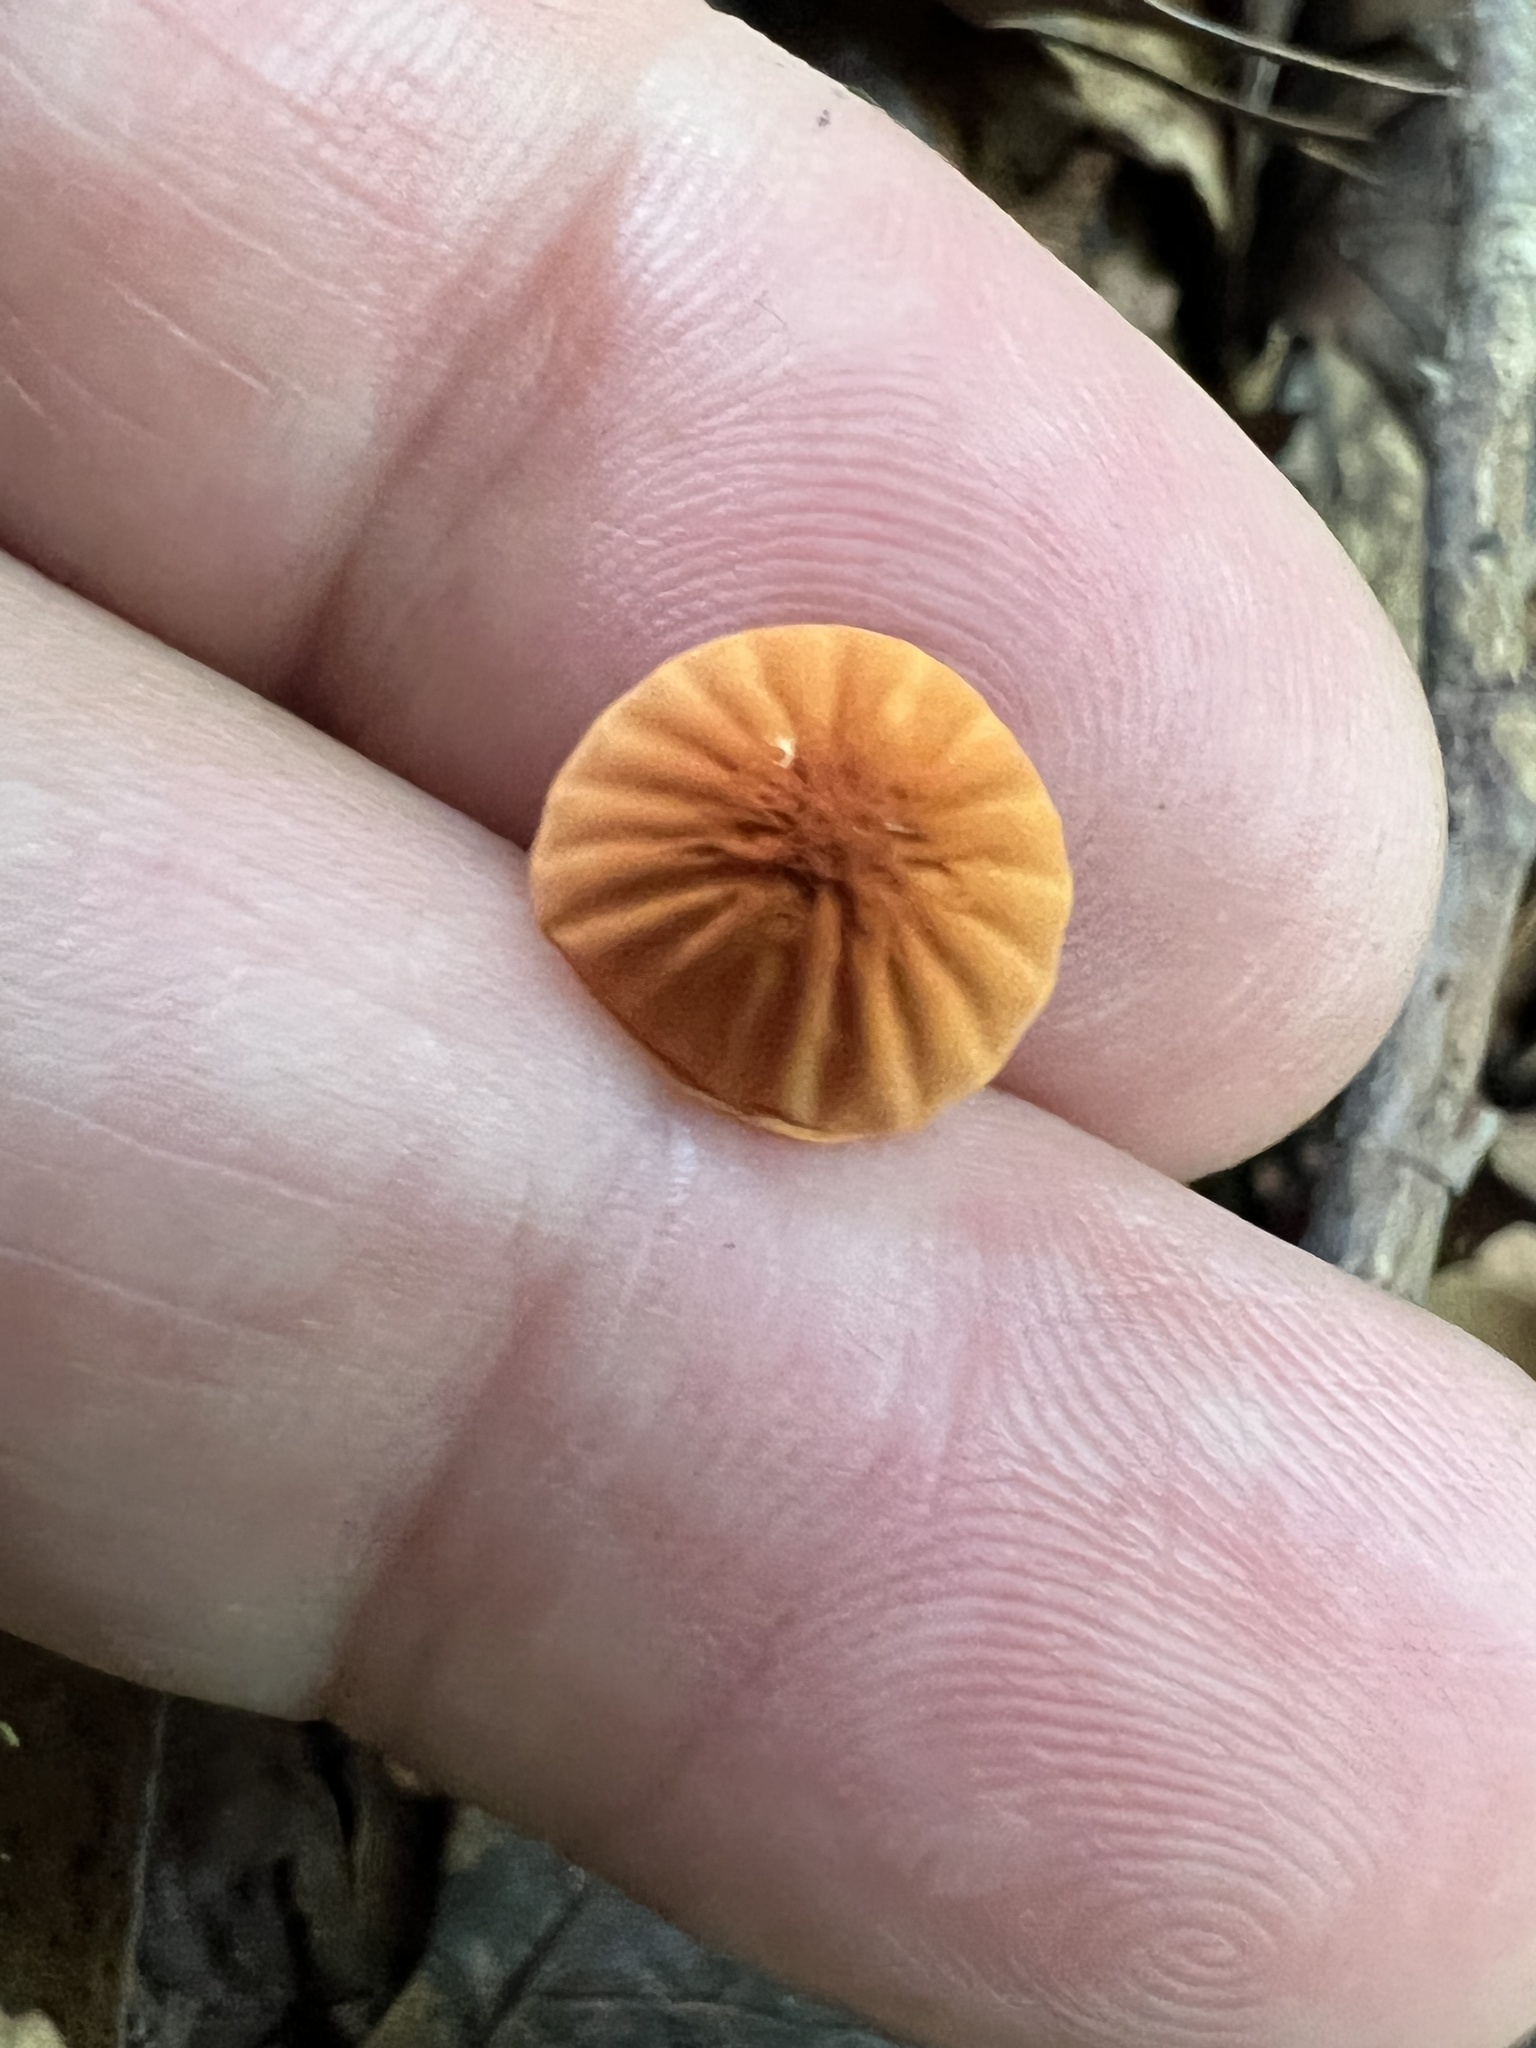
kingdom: Fungi
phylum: Basidiomycota
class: Agaricomycetes
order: Agaricales
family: Marasmiaceae
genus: Marasmius
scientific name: Marasmius siccus
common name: Orange pinwheel
